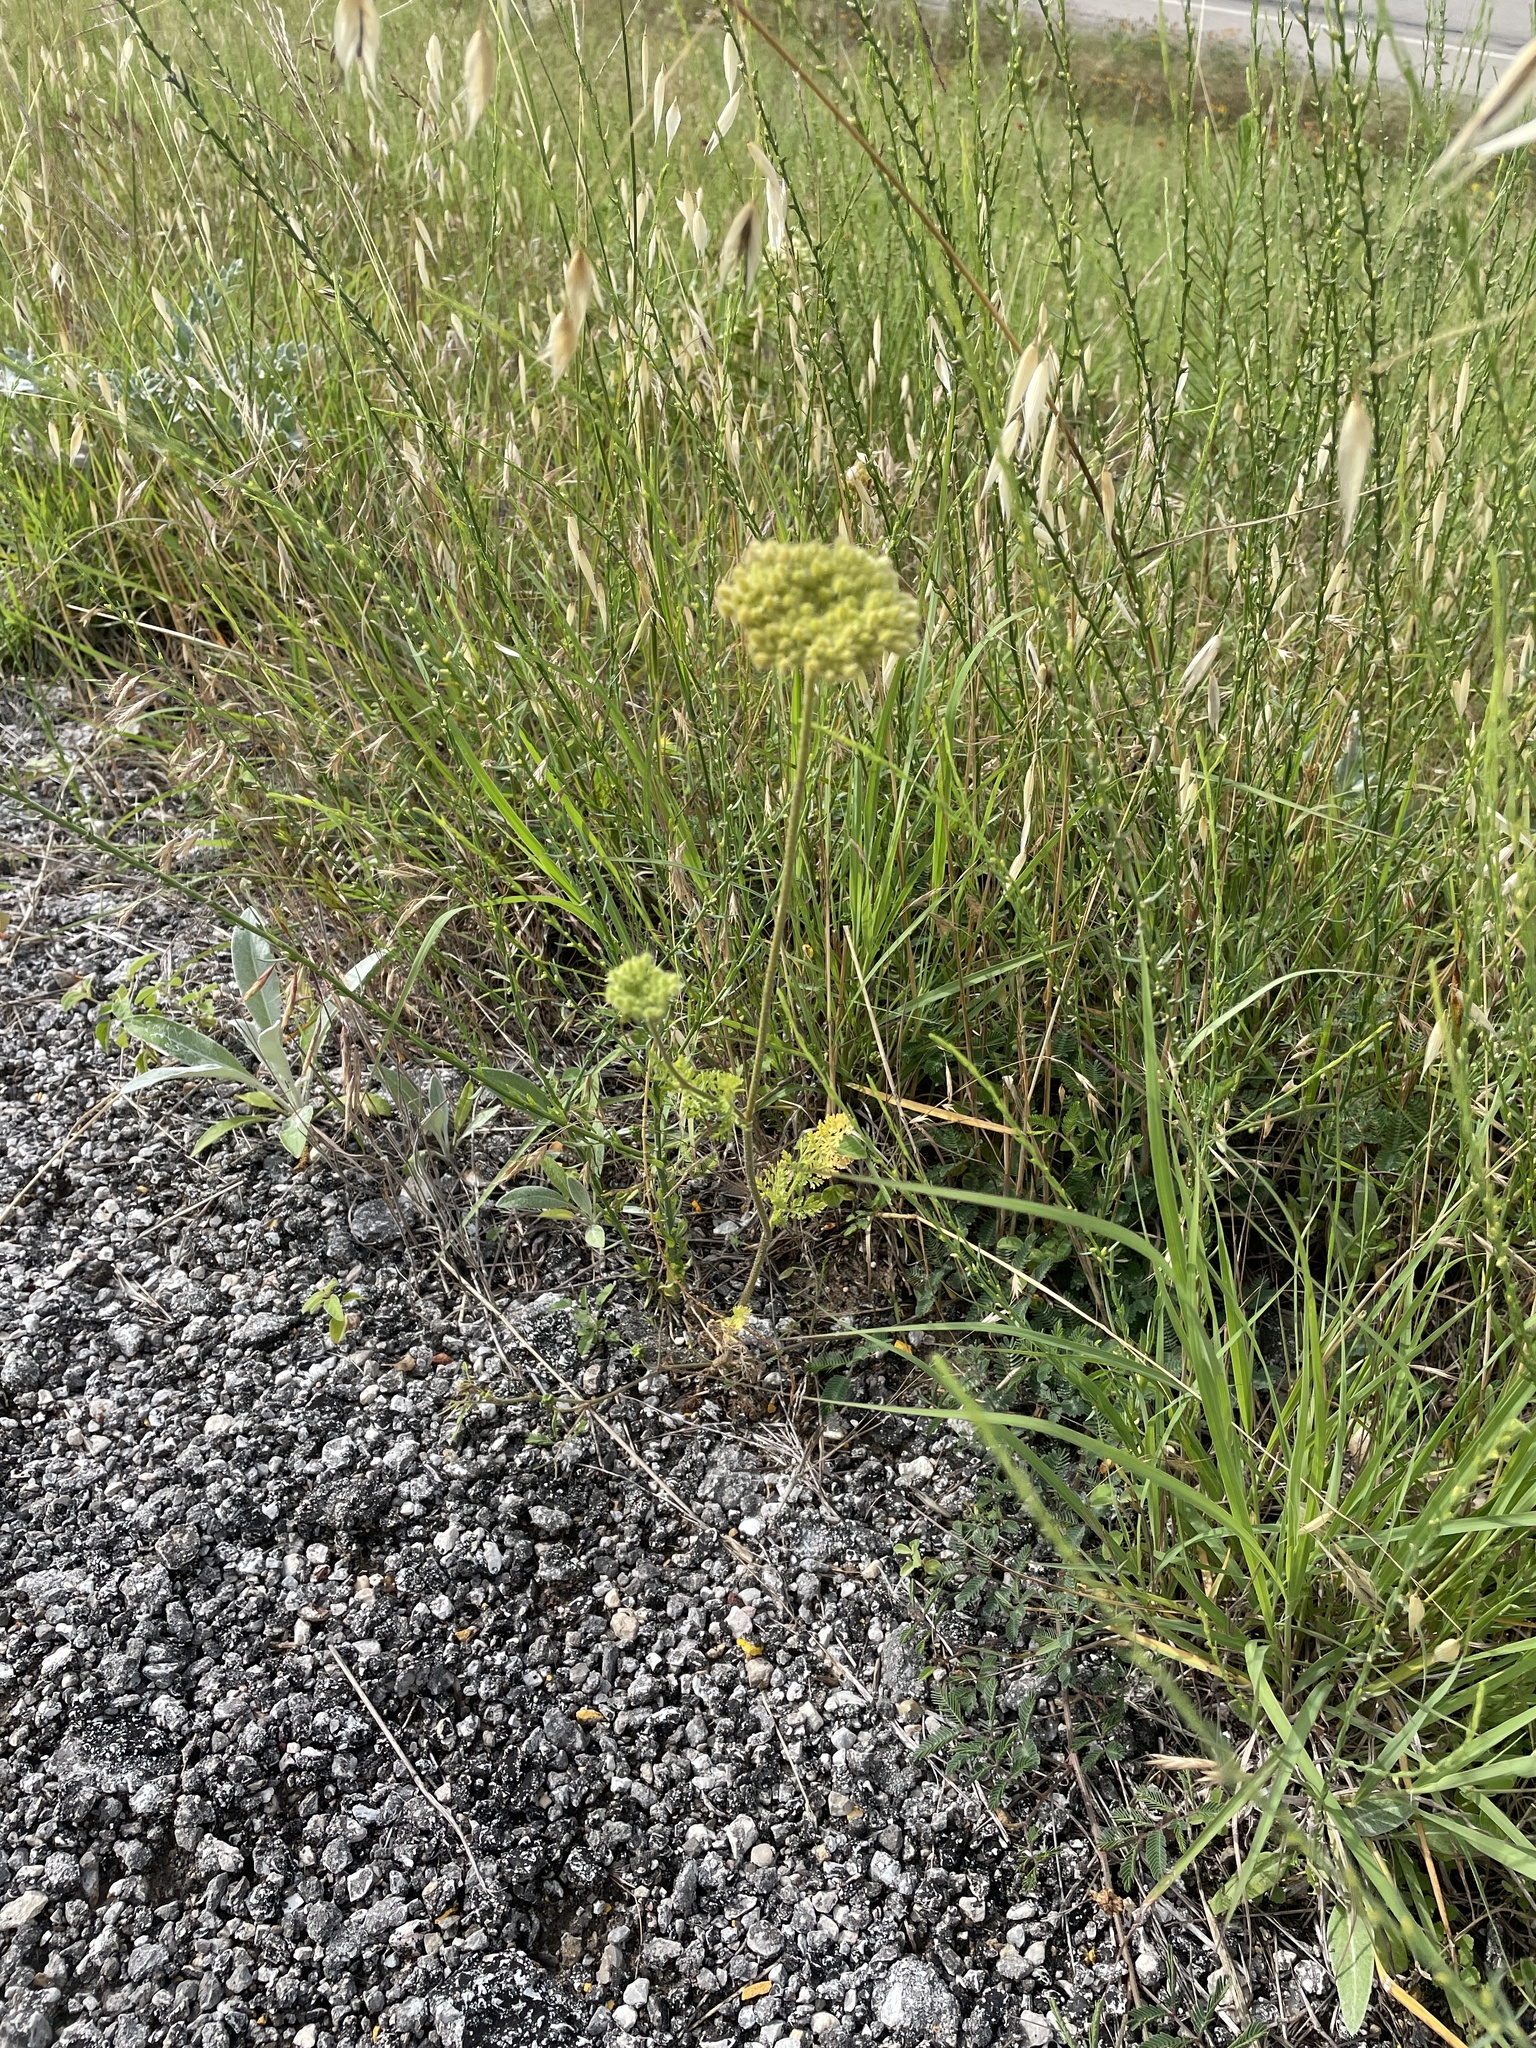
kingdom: Plantae
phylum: Tracheophyta
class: Magnoliopsida
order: Apiales
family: Apiaceae
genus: Daucus
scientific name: Daucus pusillus
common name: Southwest wild carrot
